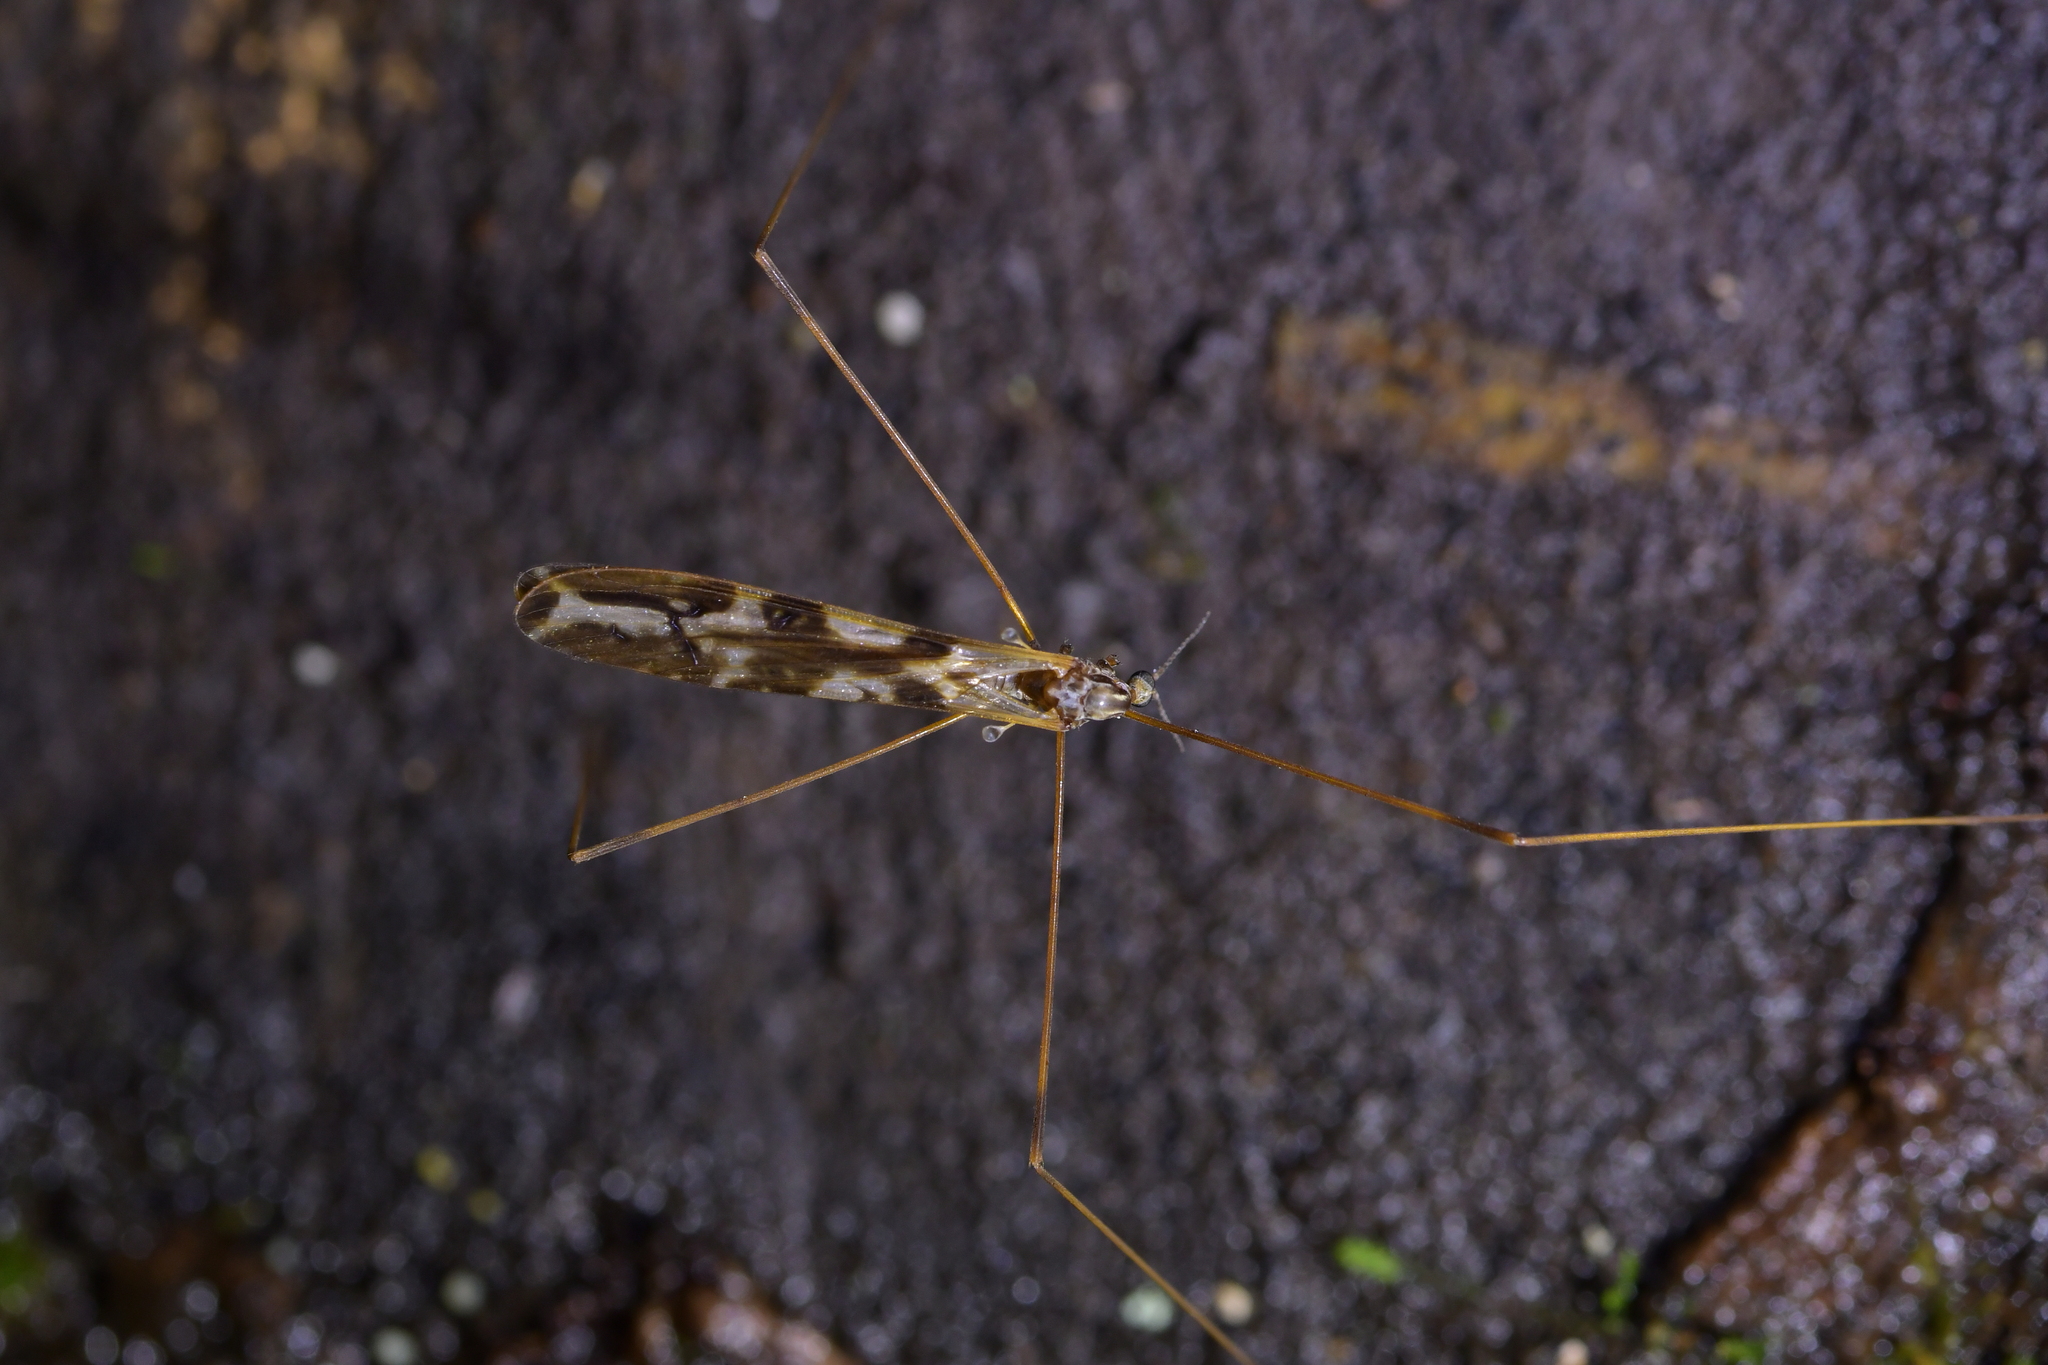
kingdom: Animalia
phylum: Arthropoda
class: Insecta
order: Diptera
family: Limoniidae
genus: Discobola
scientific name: Discobola dohrni
